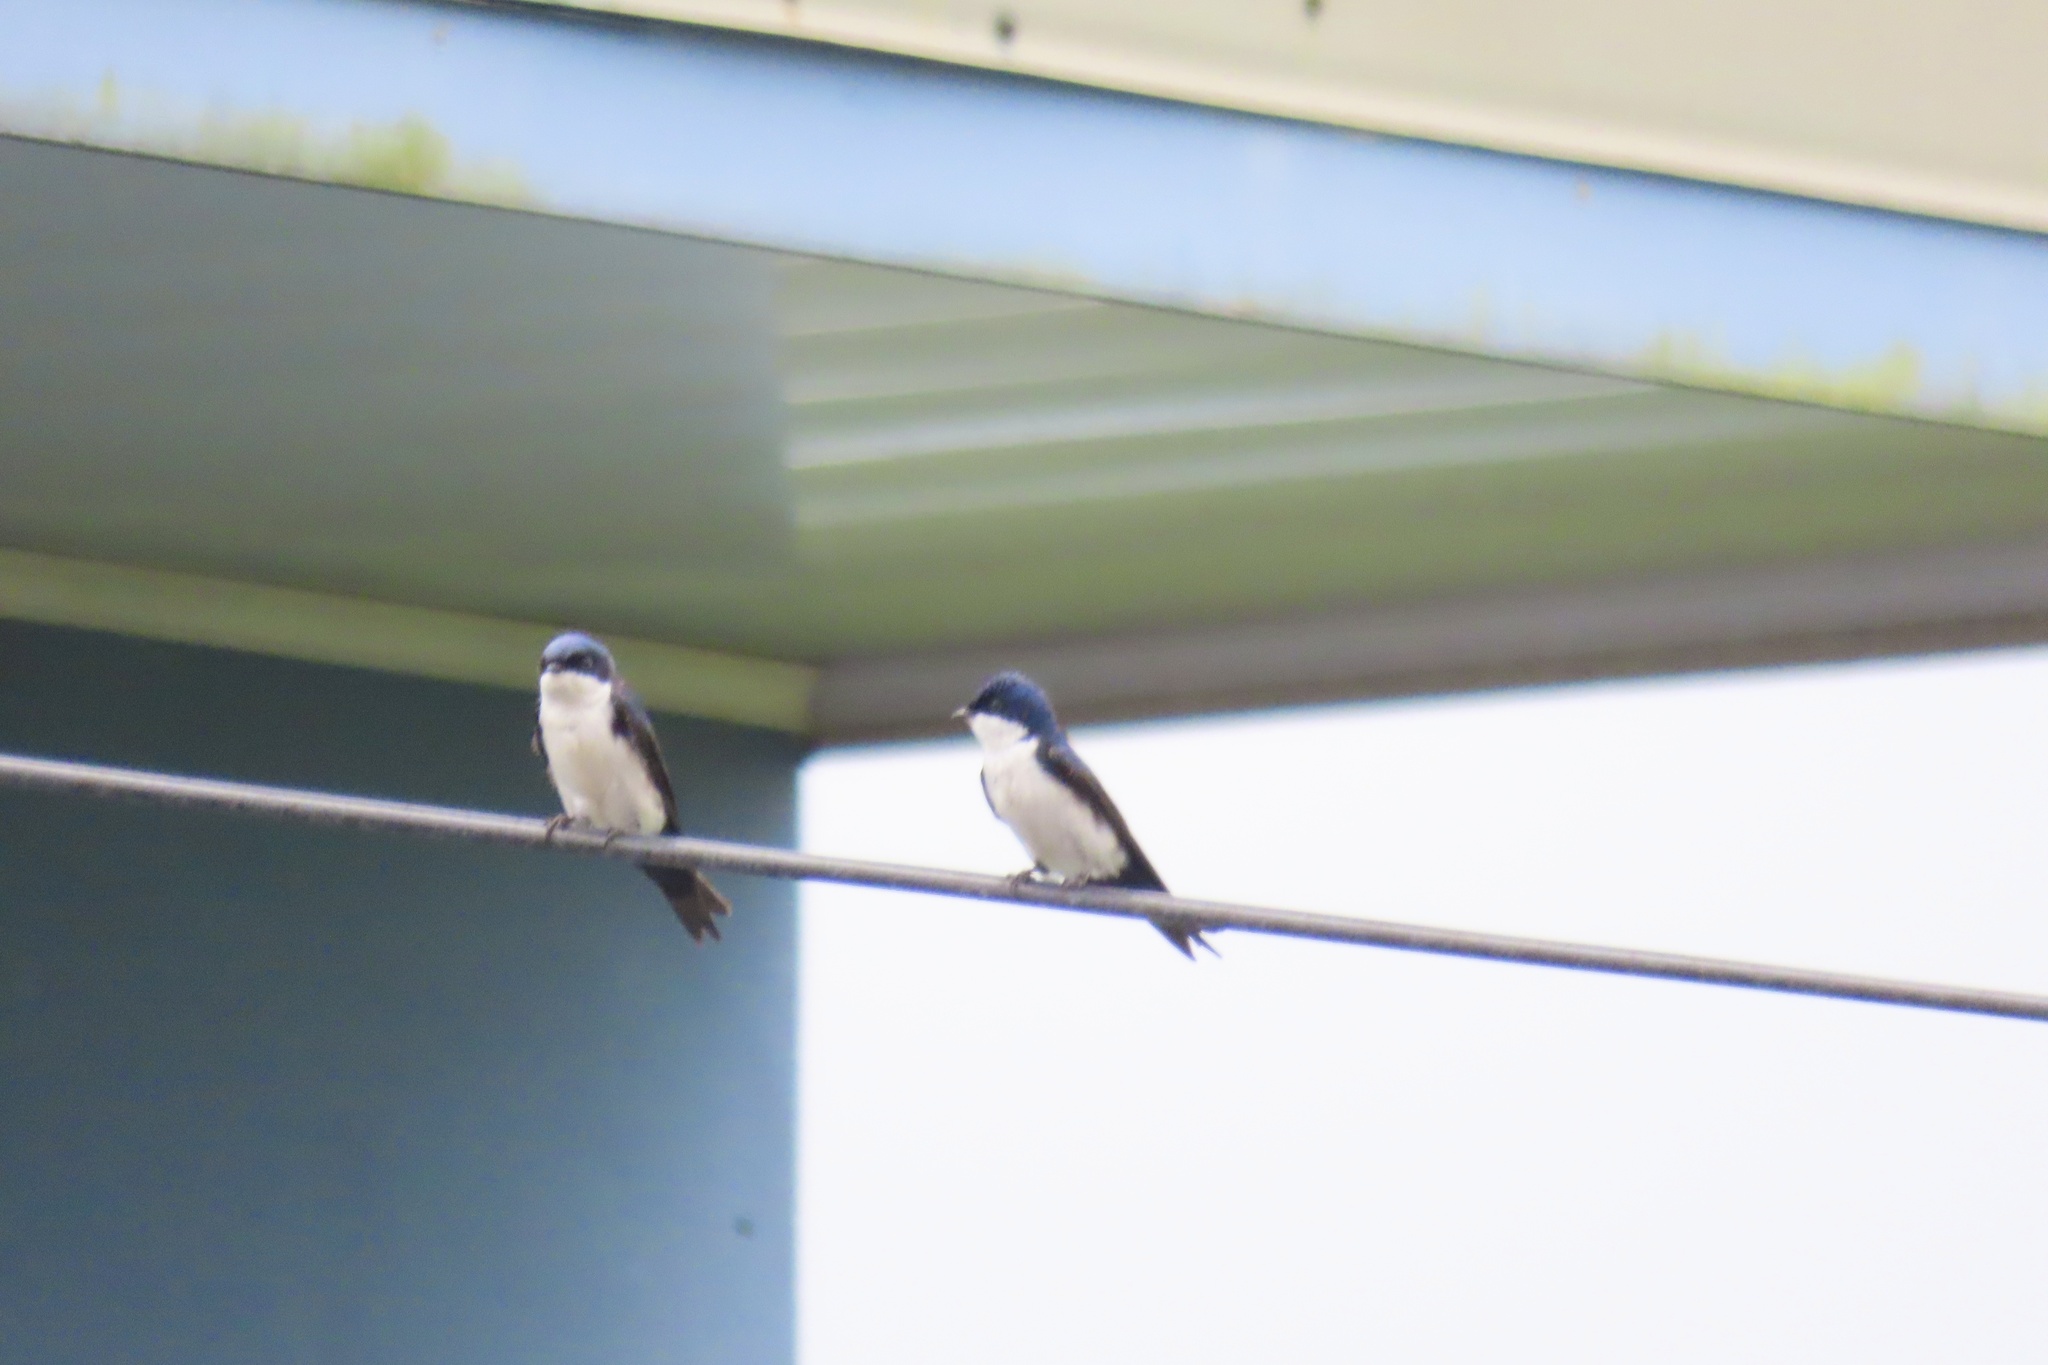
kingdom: Animalia
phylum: Chordata
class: Aves
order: Passeriformes
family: Hirundinidae
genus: Notiochelidon
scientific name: Notiochelidon cyanoleuca
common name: Blue-and-white swallow
